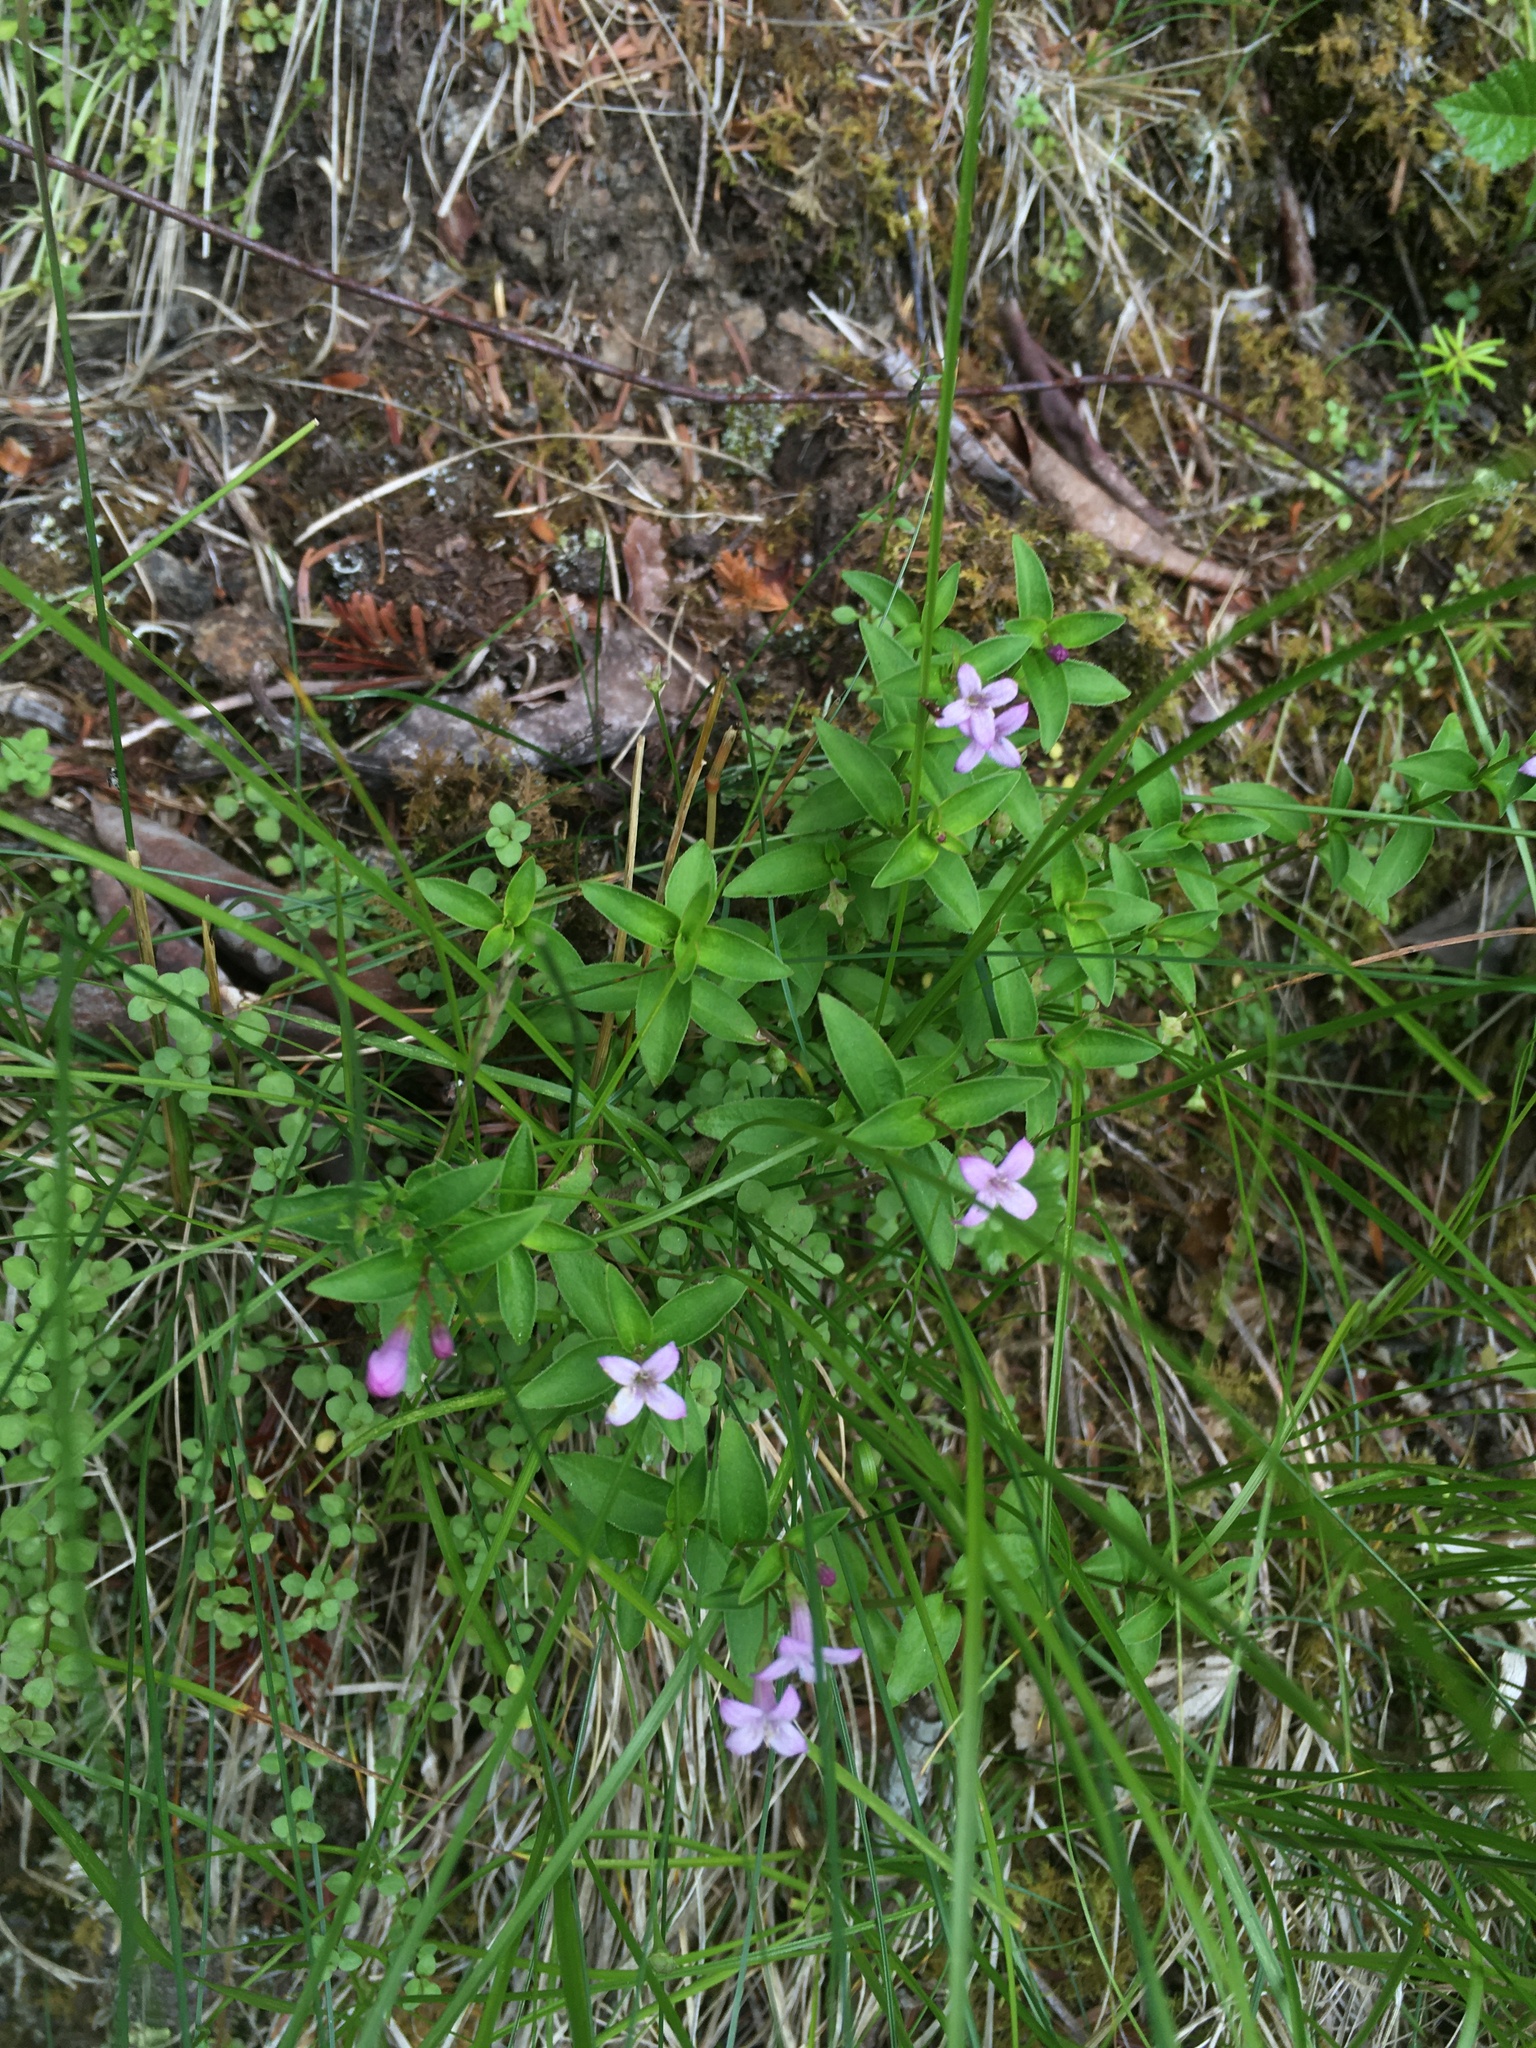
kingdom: Plantae
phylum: Tracheophyta
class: Magnoliopsida
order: Gentianales
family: Rubiaceae
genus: Houstonia
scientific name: Houstonia purpurea
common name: Summer bluet
